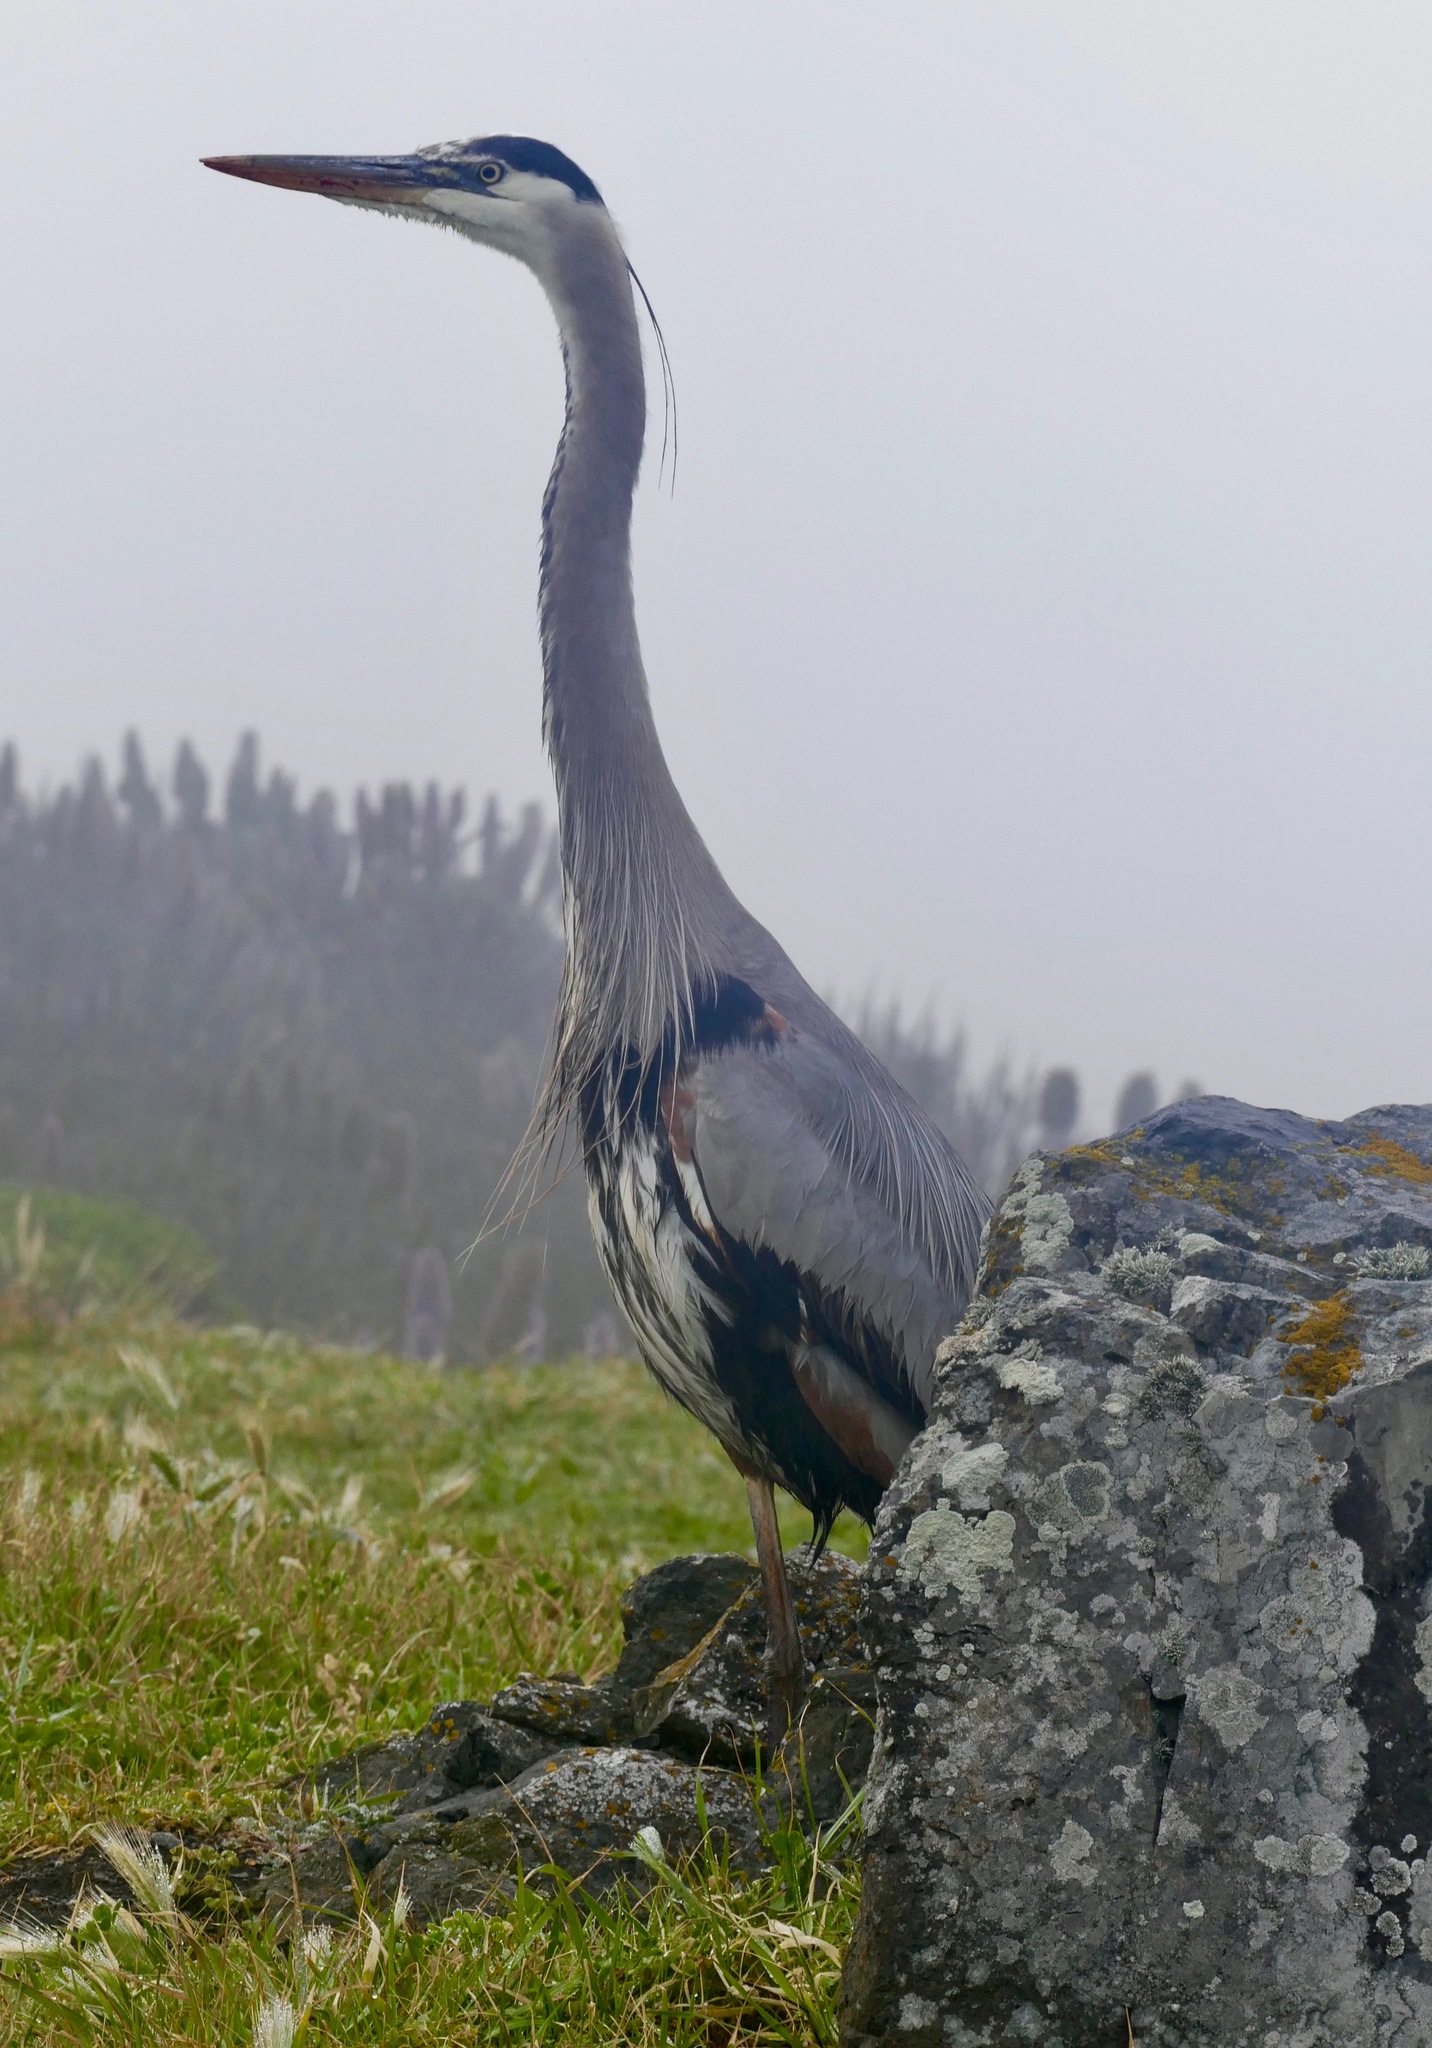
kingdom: Animalia
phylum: Chordata
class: Aves
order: Pelecaniformes
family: Ardeidae
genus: Ardea
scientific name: Ardea herodias
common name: Great blue heron
